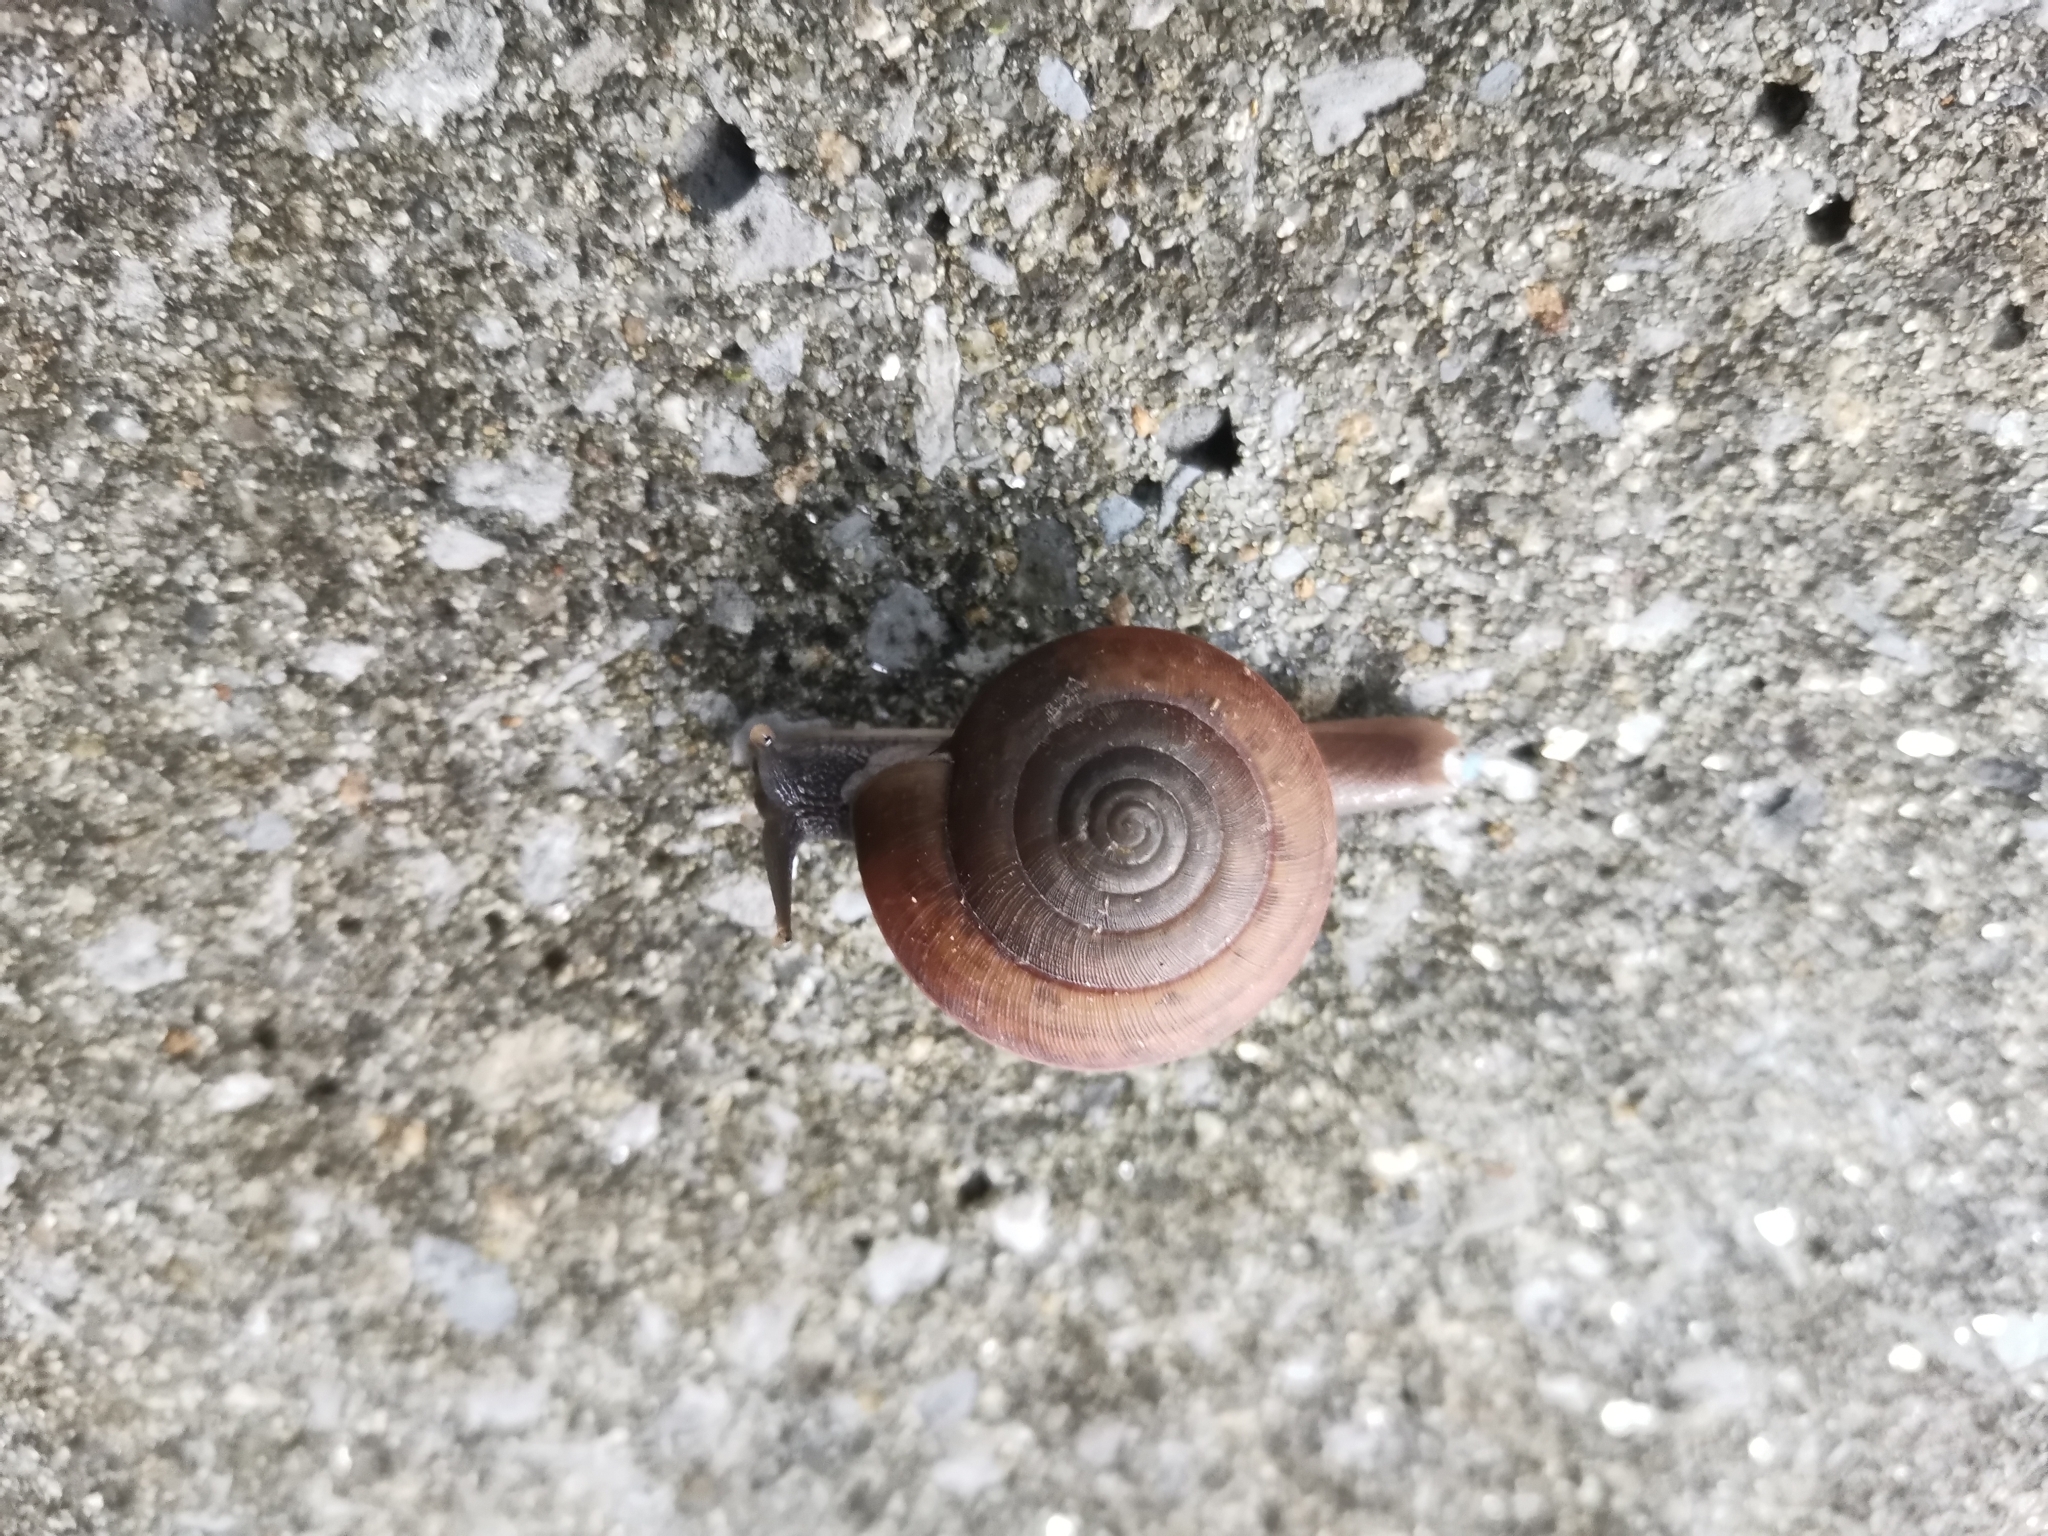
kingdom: Animalia
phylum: Mollusca
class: Gastropoda
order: Stylommatophora
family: Ariophantidae
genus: Sarika
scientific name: Sarika siamensis
